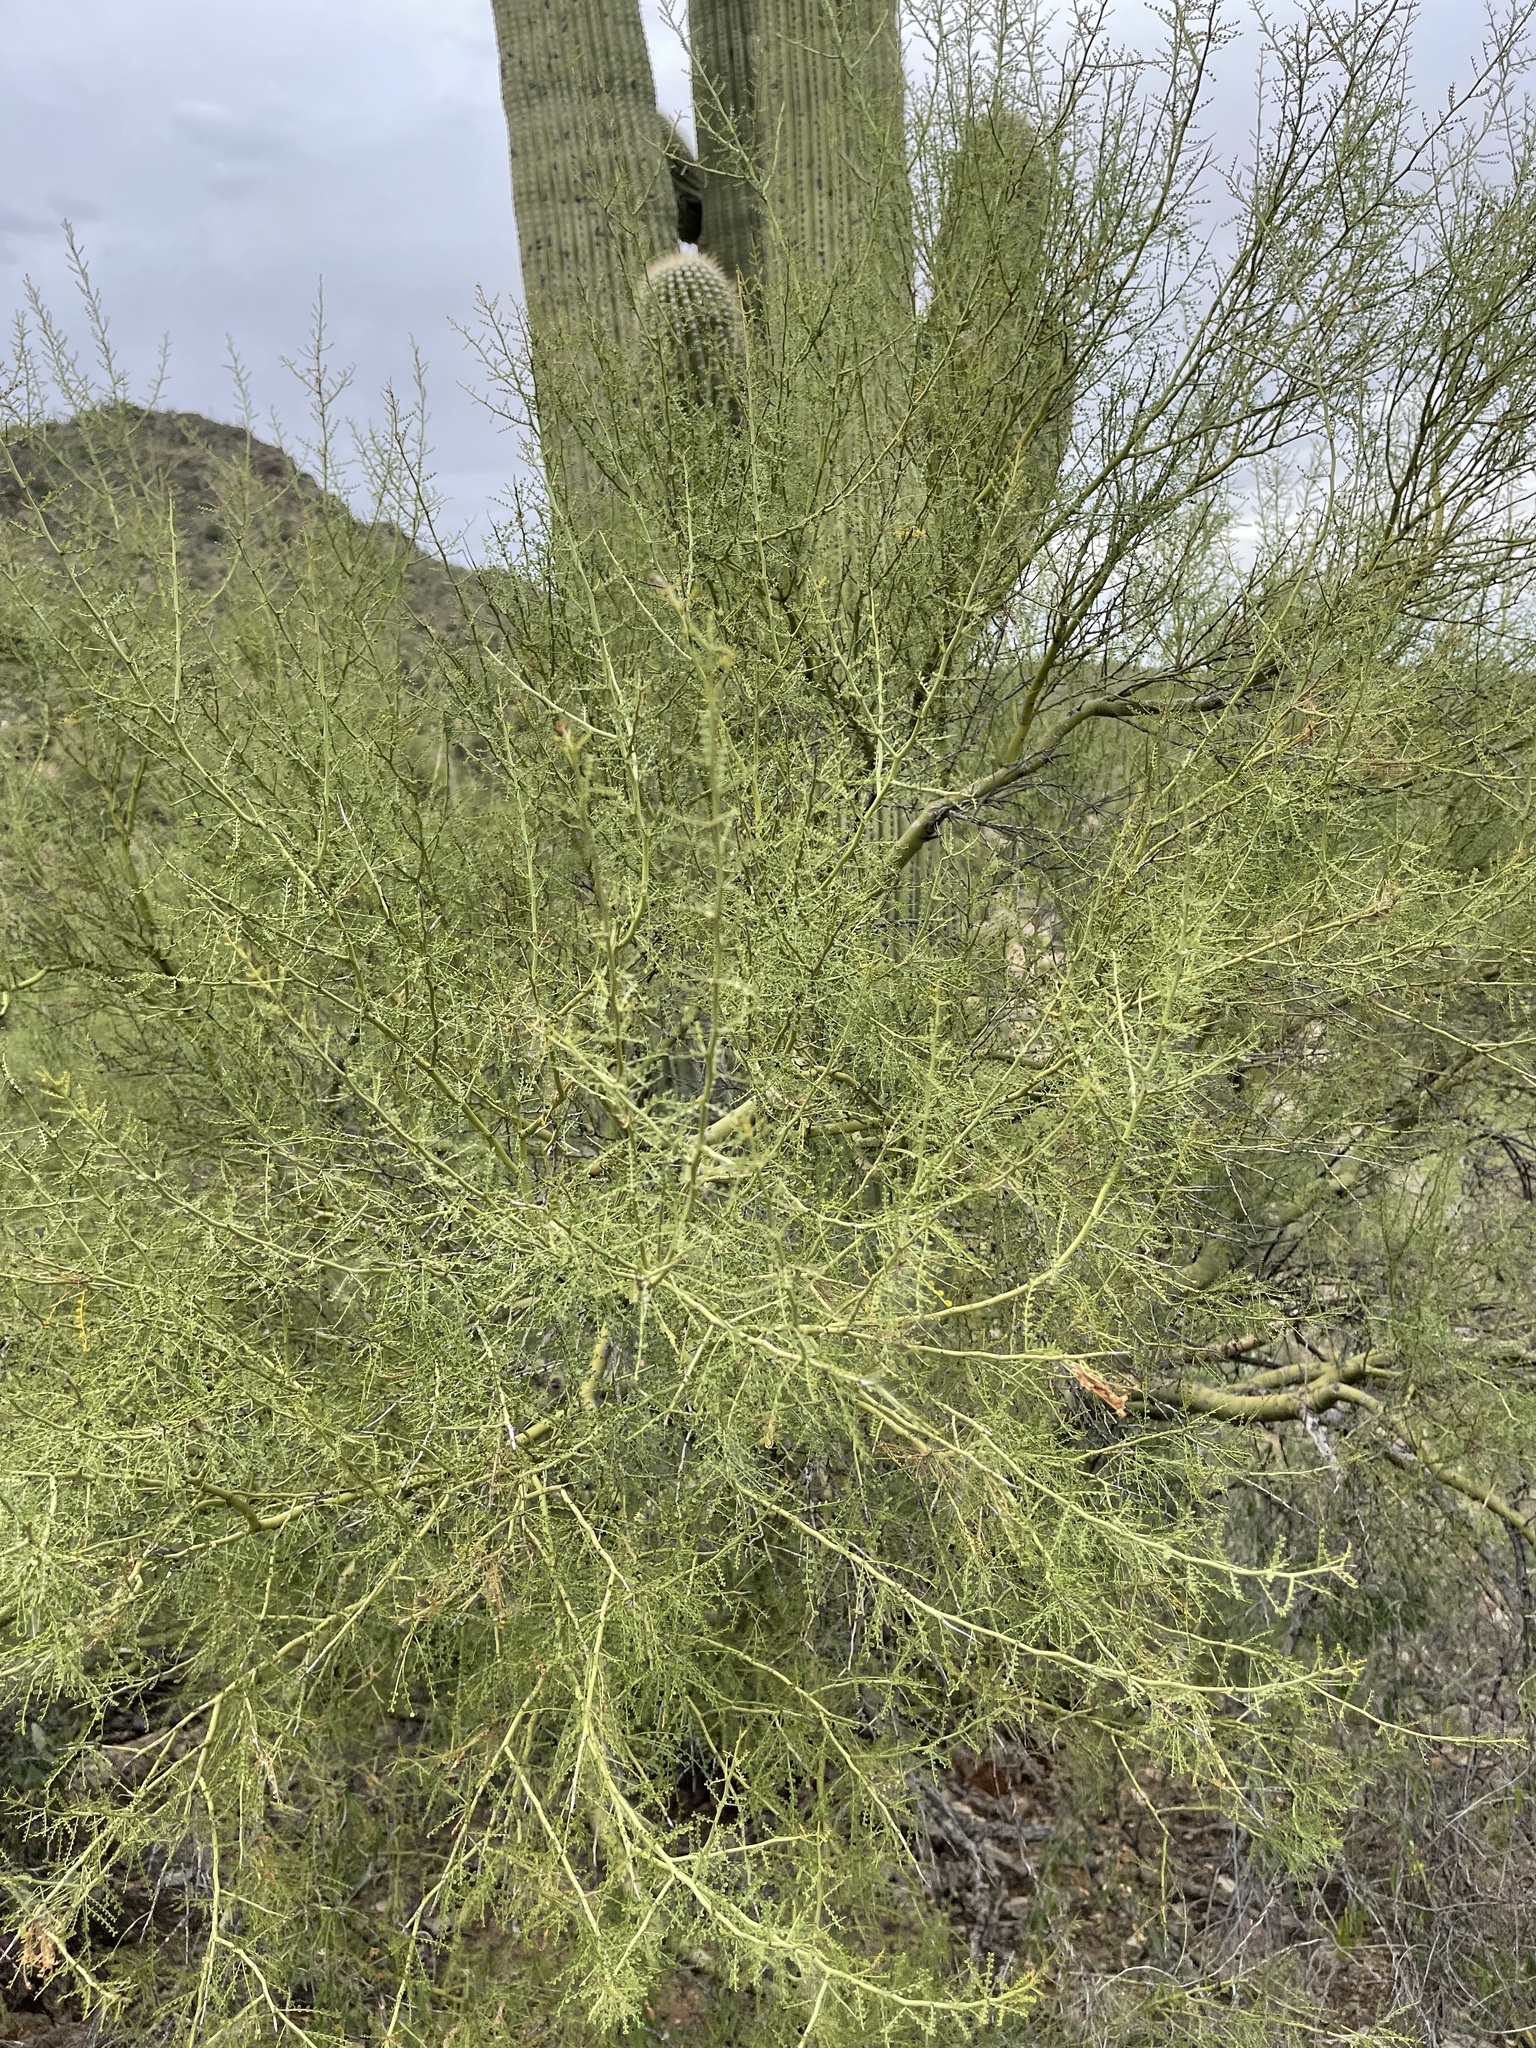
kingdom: Plantae
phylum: Tracheophyta
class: Magnoliopsida
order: Fabales
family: Fabaceae
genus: Parkinsonia
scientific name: Parkinsonia microphylla
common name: Yellow paloverde
